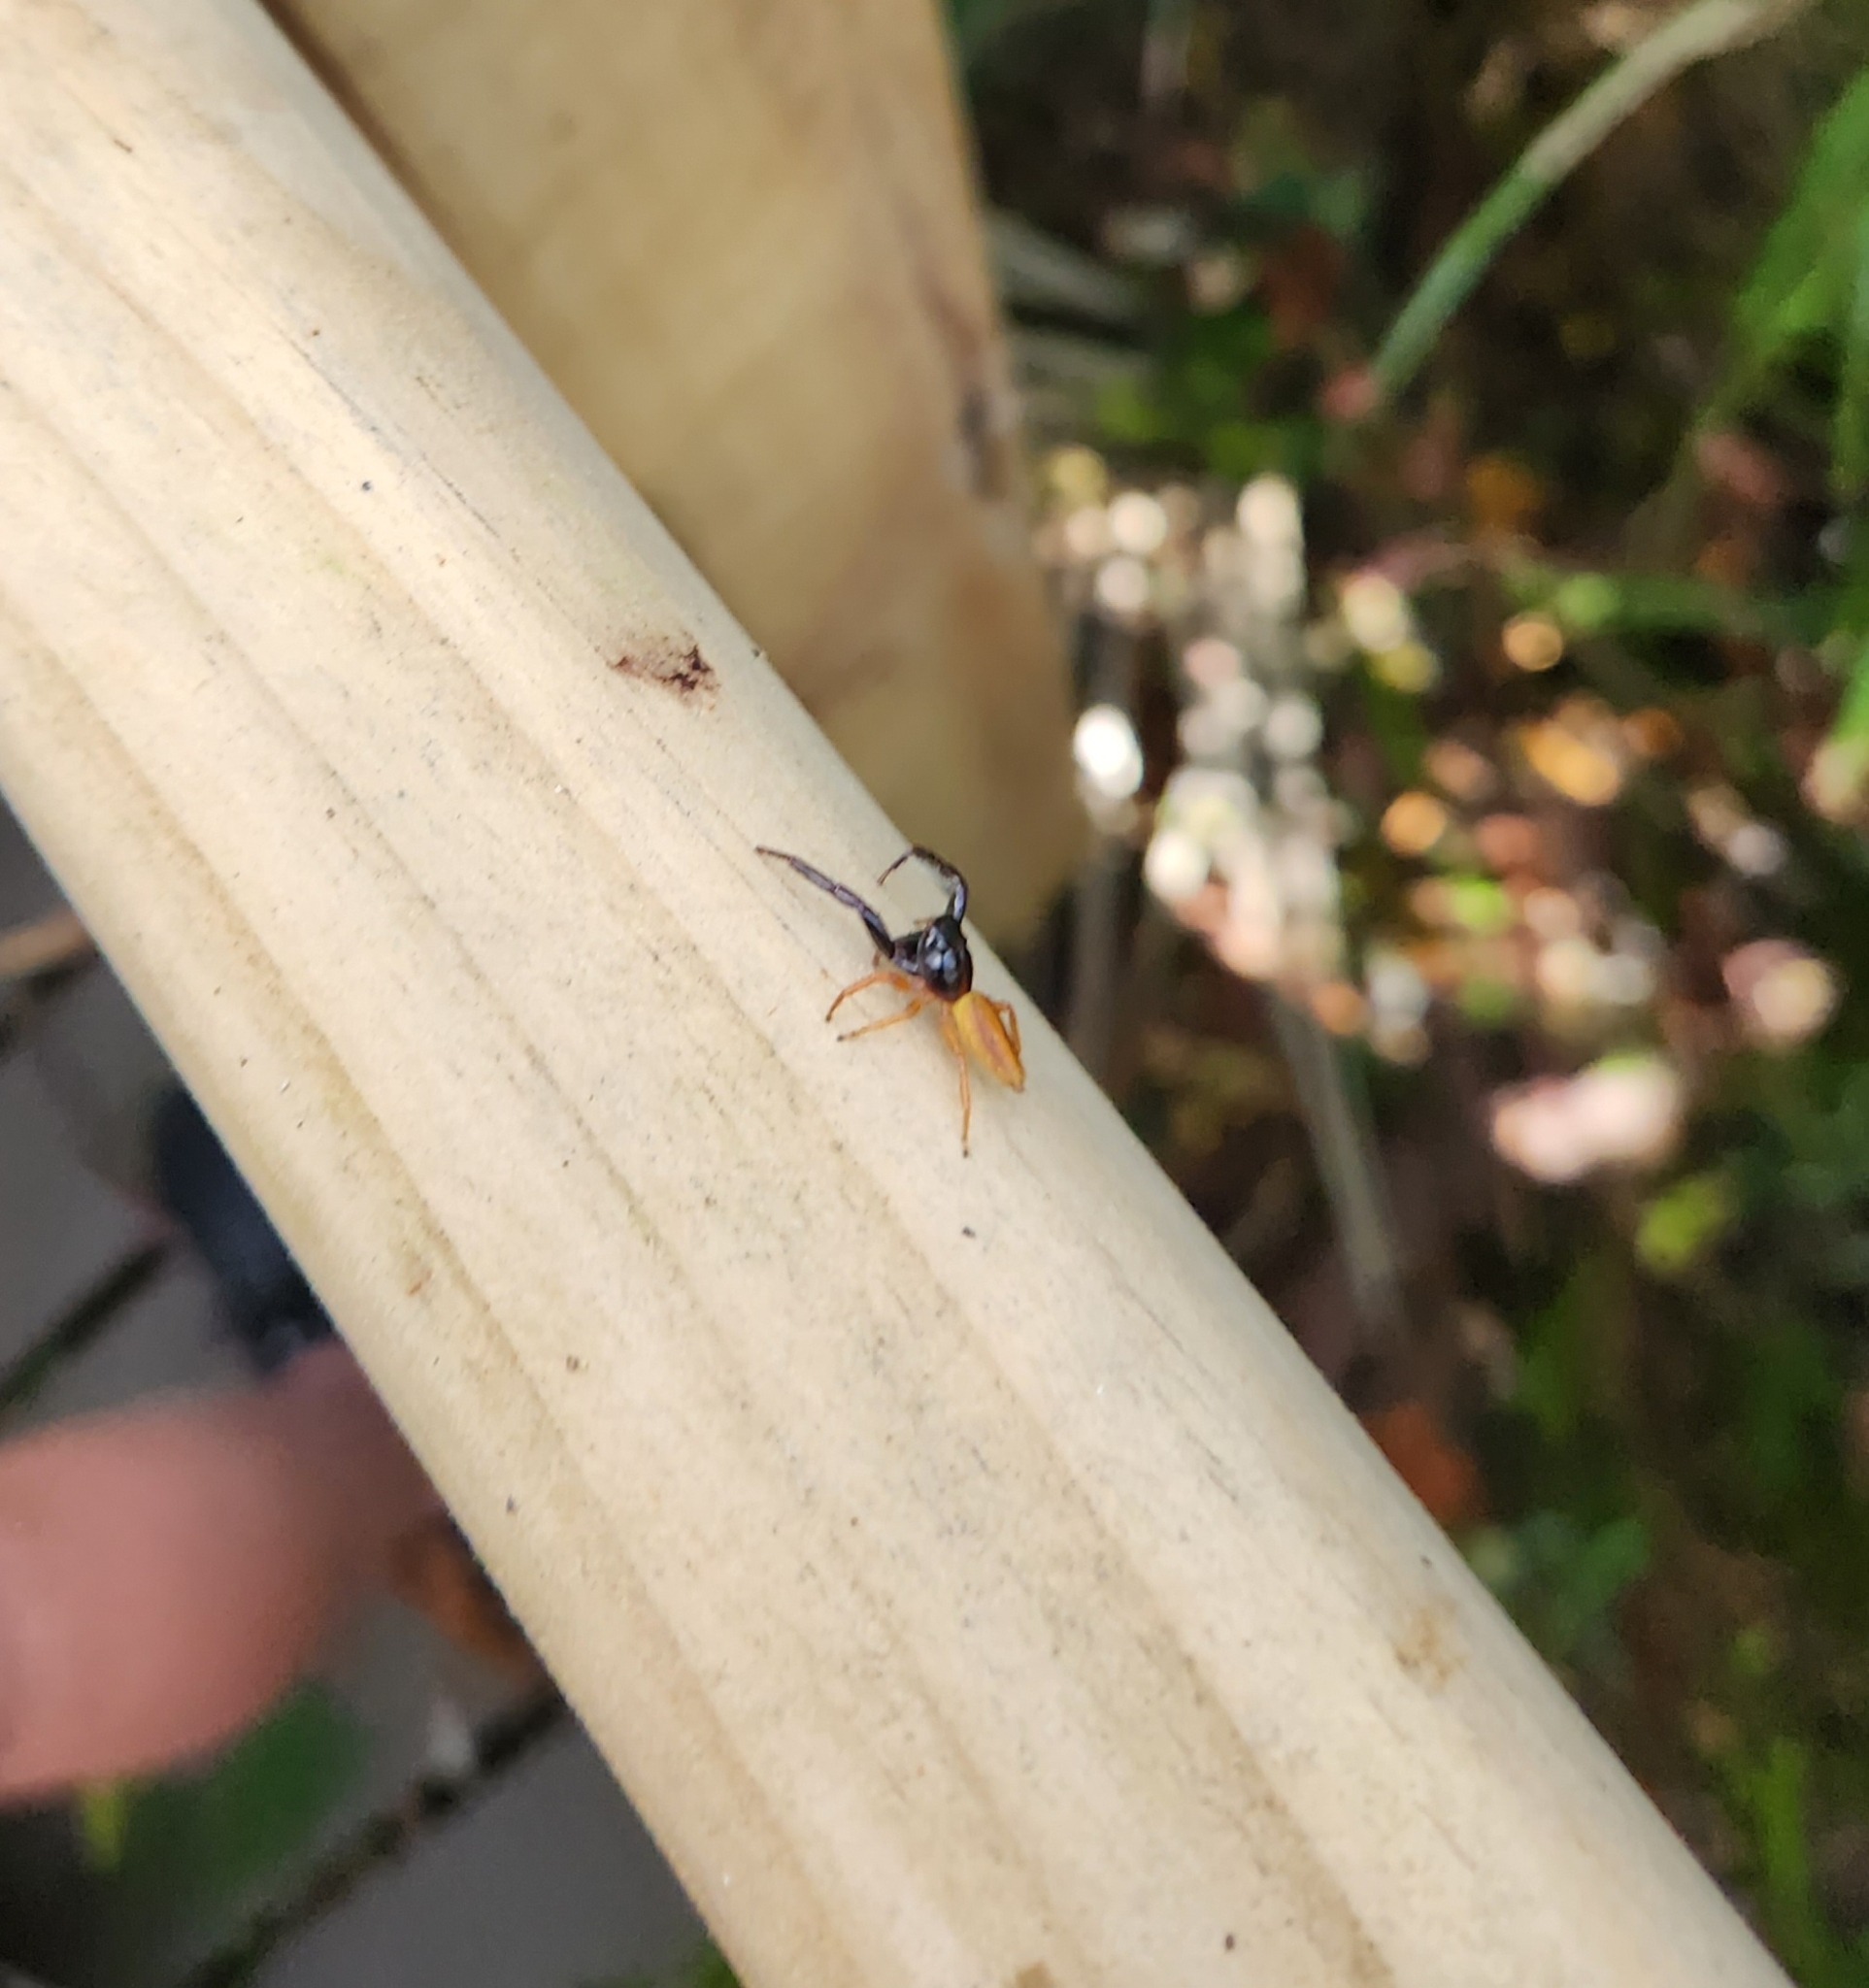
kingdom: Animalia
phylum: Arthropoda
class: Arachnida
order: Araneae
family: Salticidae
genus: Trite
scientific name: Trite planiceps
